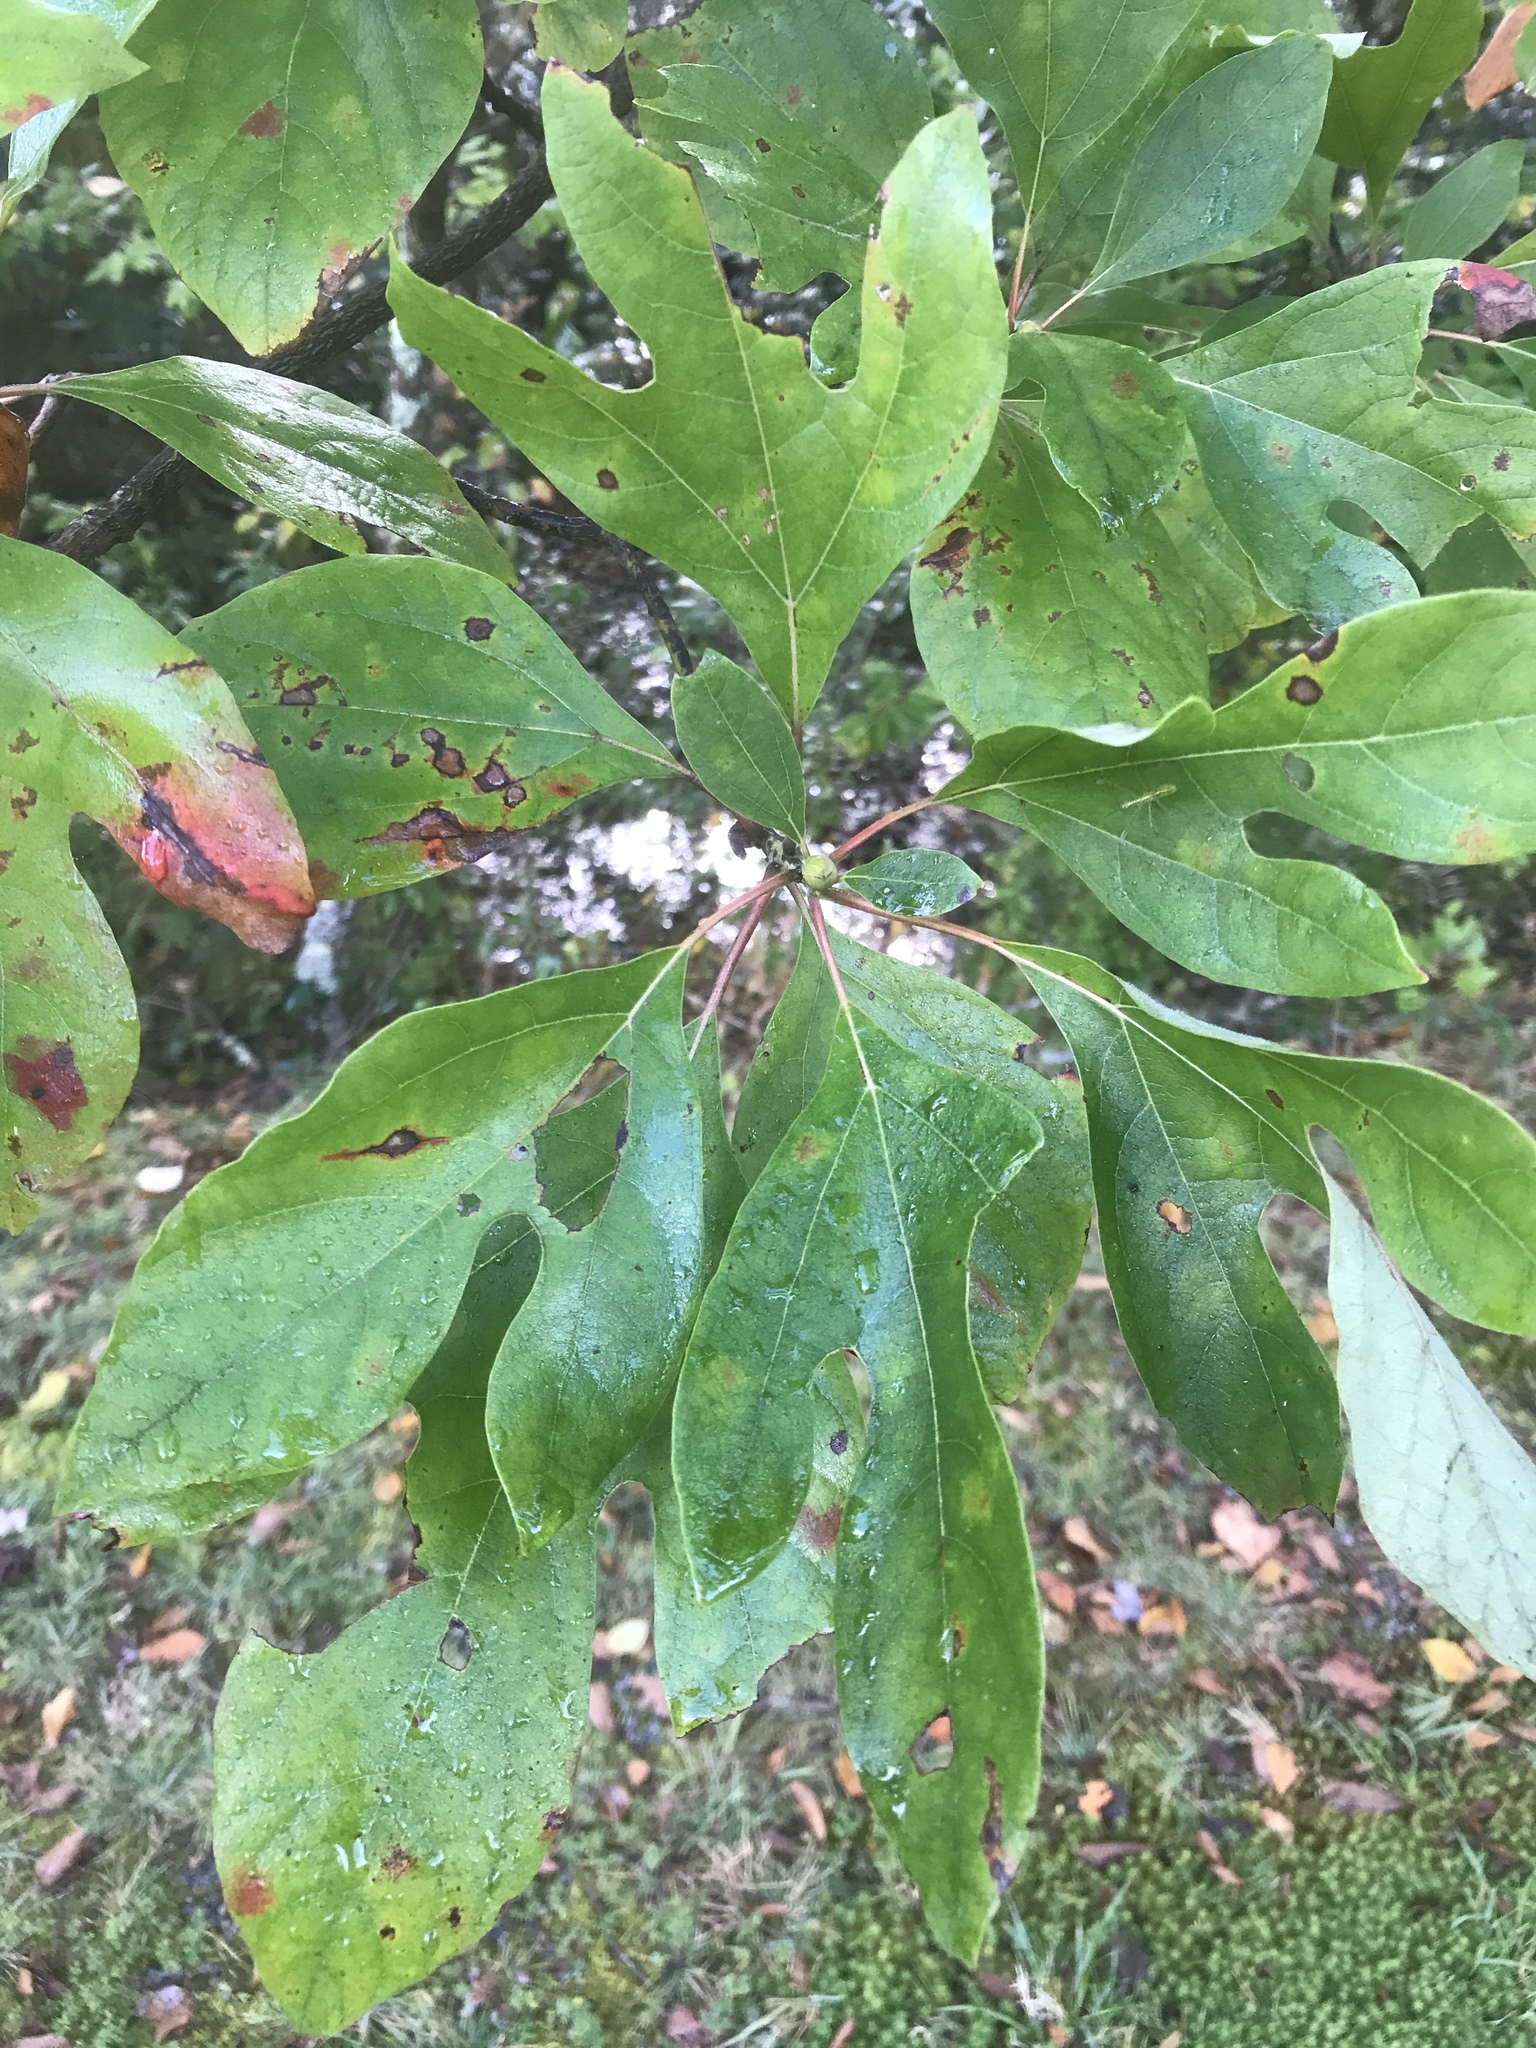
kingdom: Plantae
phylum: Tracheophyta
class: Magnoliopsida
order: Laurales
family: Lauraceae
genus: Sassafras
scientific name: Sassafras albidum
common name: Sassafras
